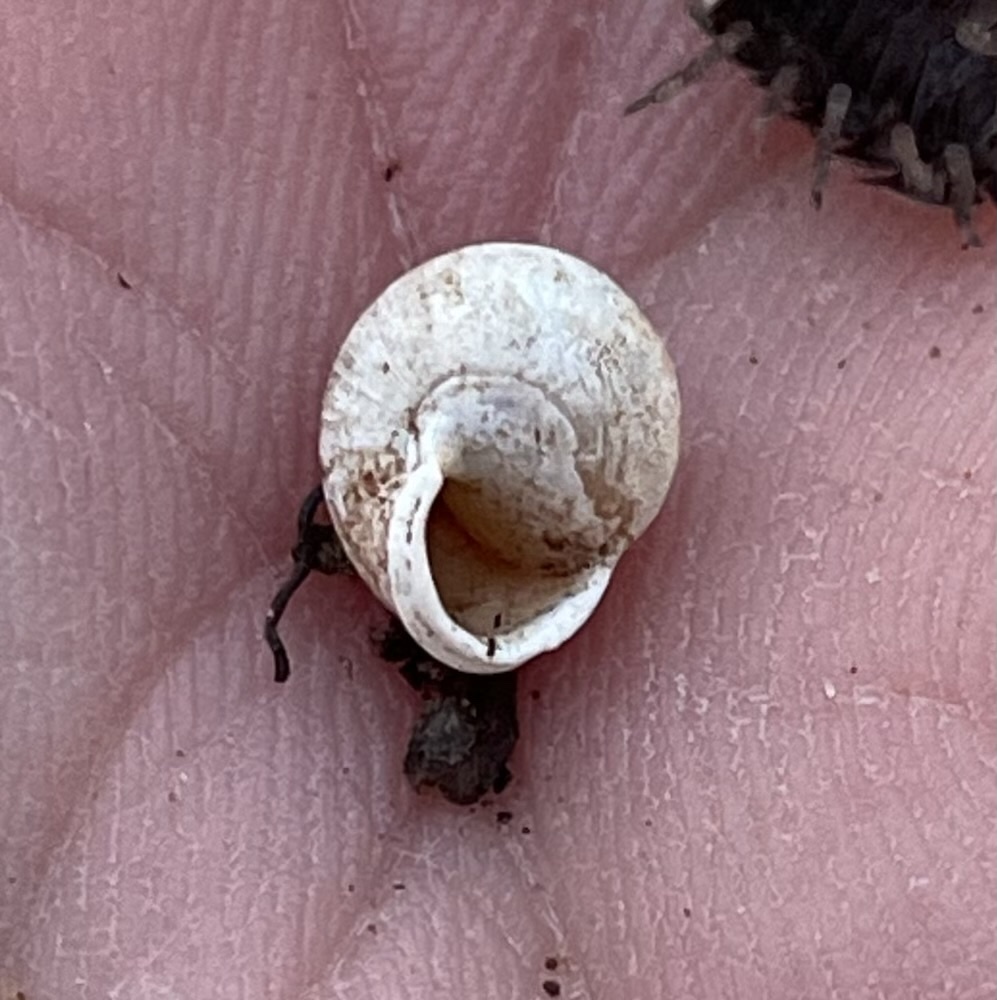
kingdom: Animalia
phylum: Mollusca
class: Gastropoda
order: Cycloneritida
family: Helicinidae
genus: Helicina
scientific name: Helicina orbiculata
